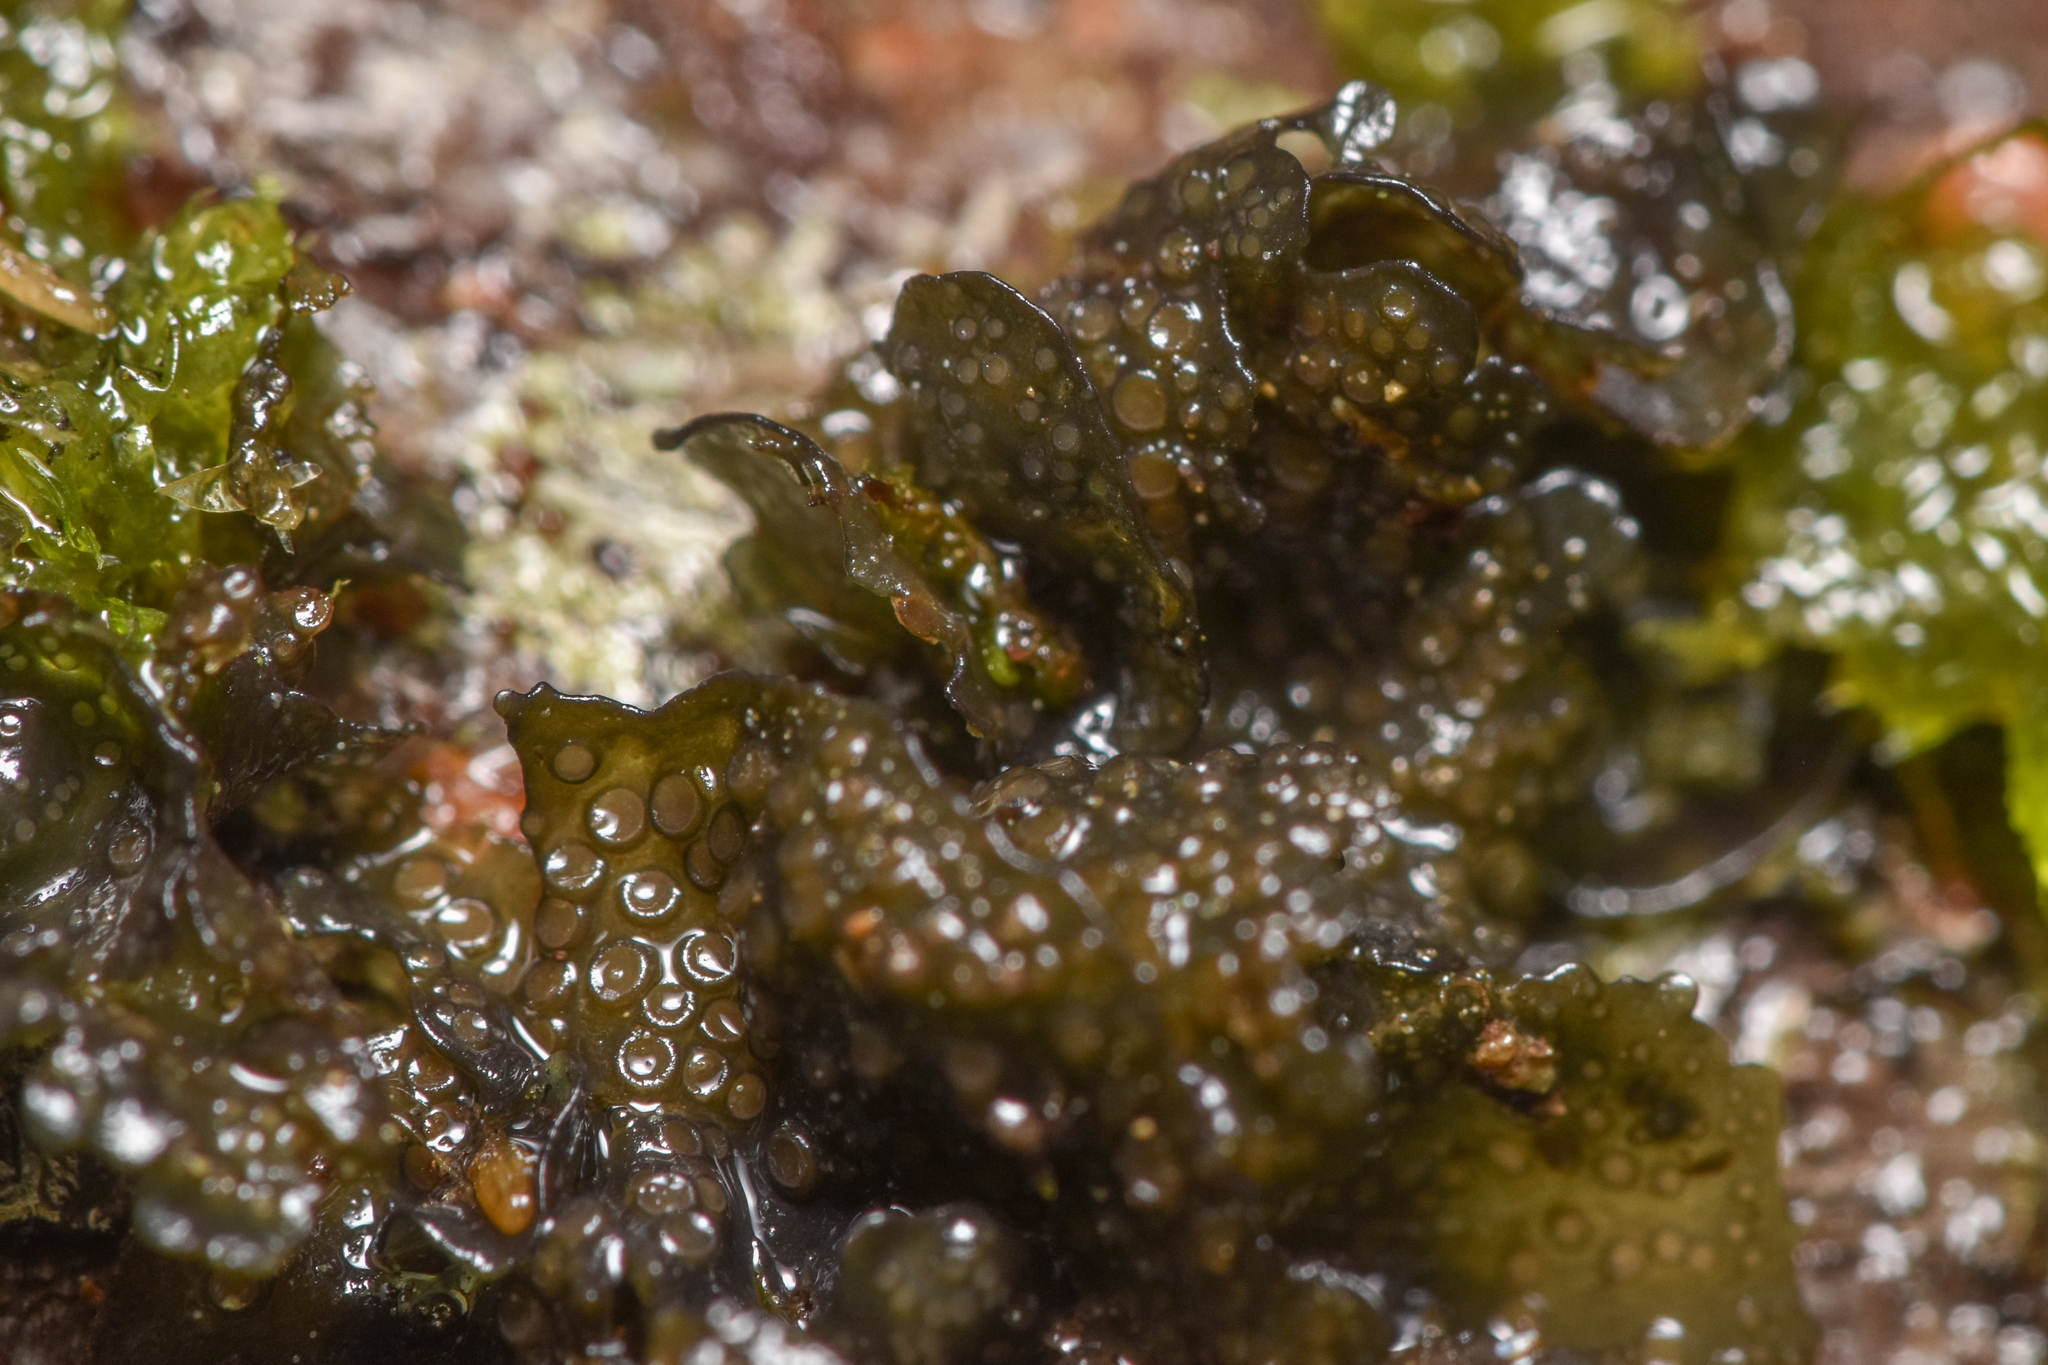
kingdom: Fungi
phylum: Ascomycota
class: Lecanoromycetes
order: Peltigerales
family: Collemataceae
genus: Scytinium
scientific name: Scytinium polycarpum
